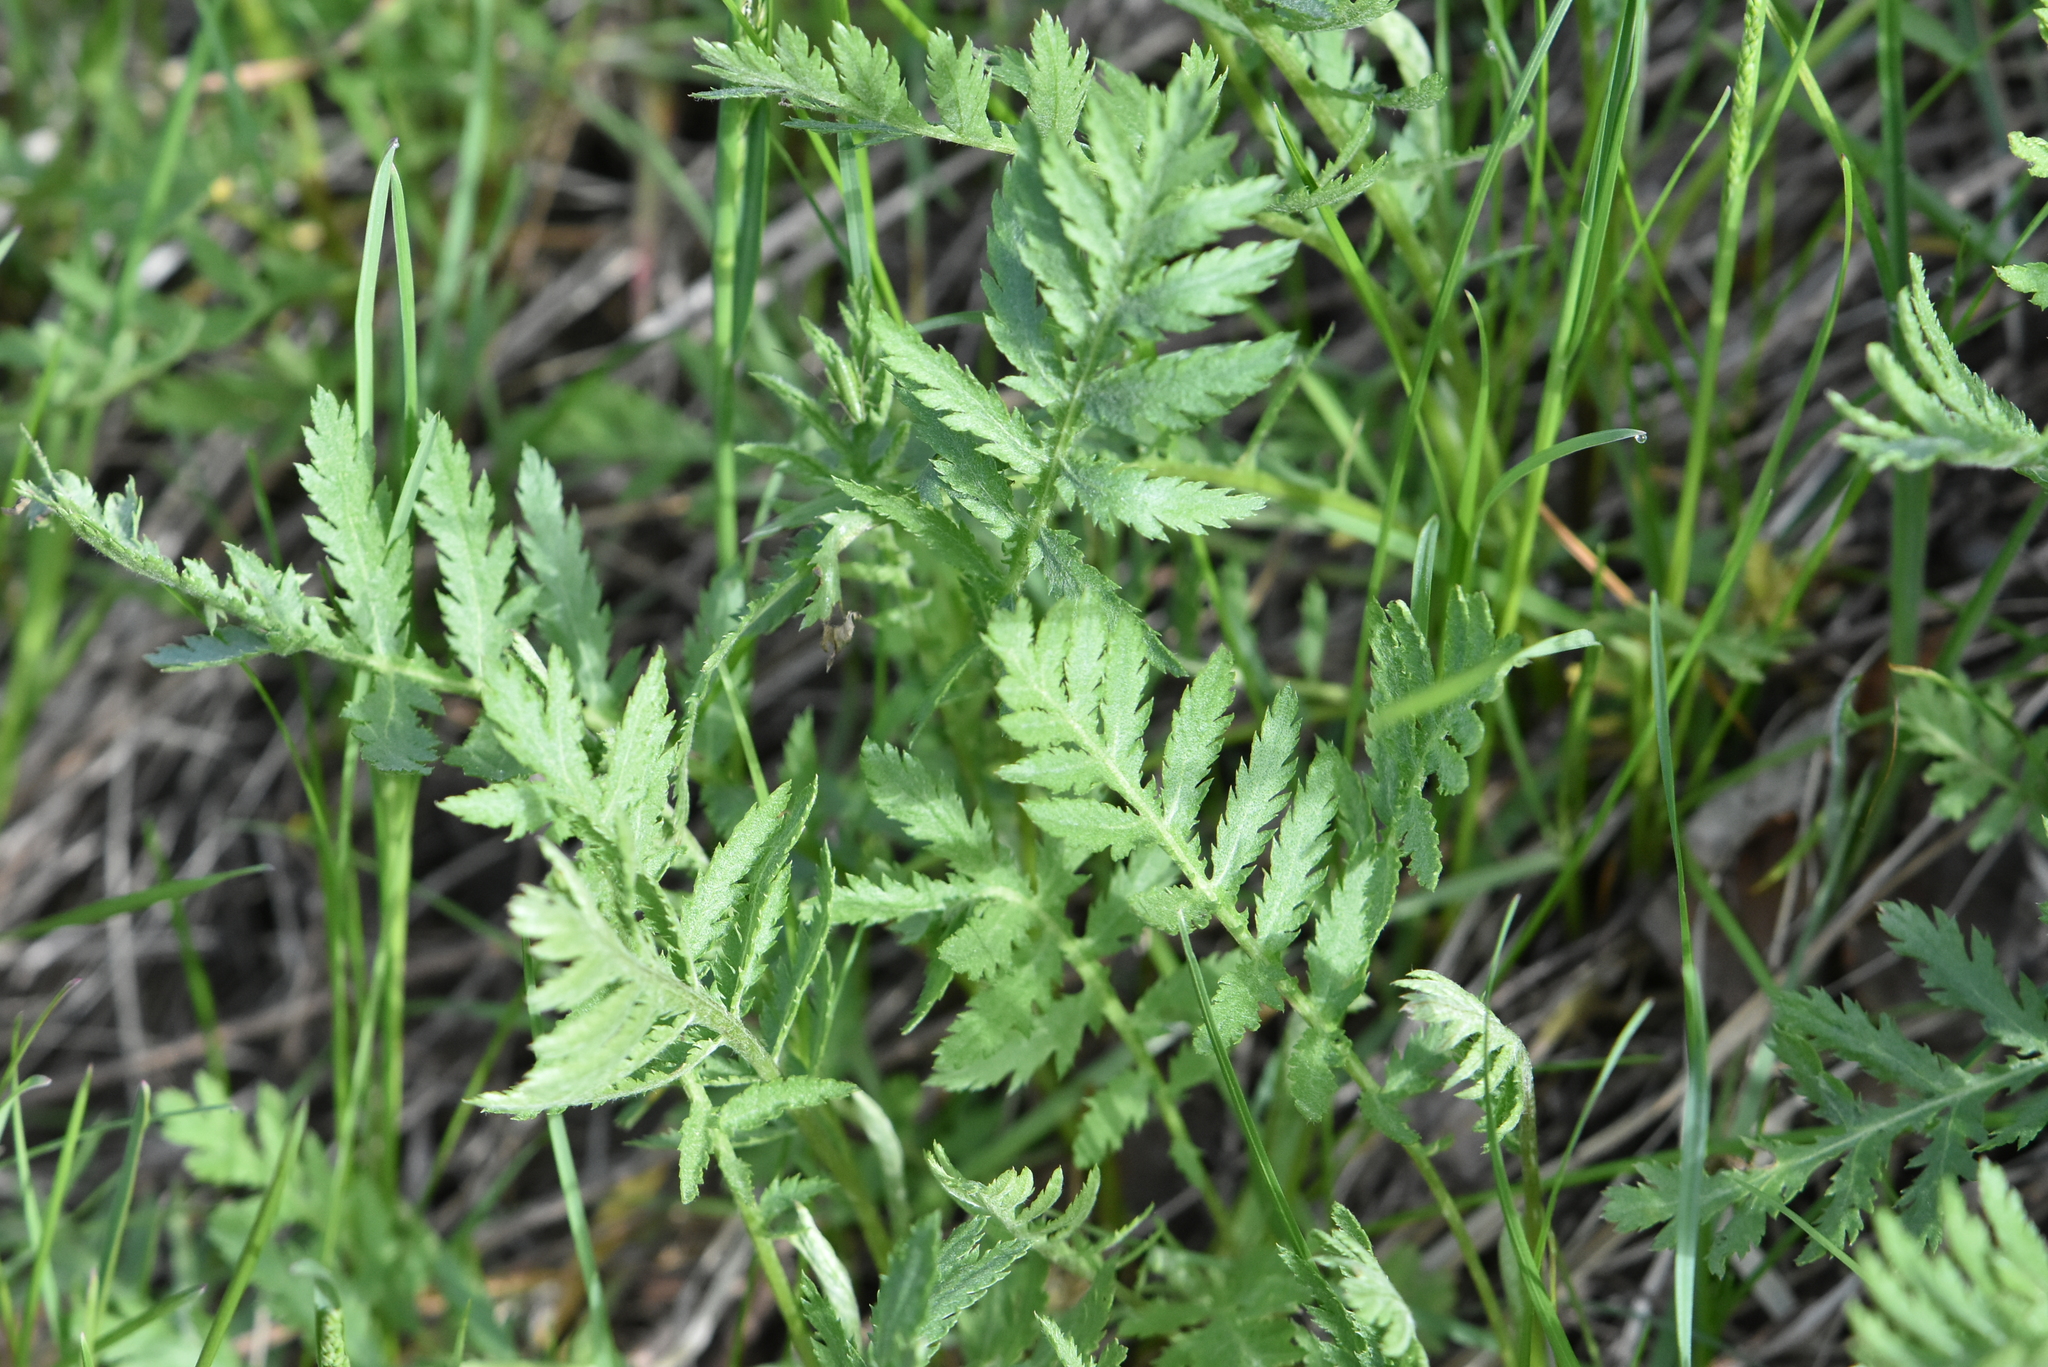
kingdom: Plantae
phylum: Tracheophyta
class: Magnoliopsida
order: Asterales
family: Asteraceae
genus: Tanacetum
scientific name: Tanacetum vulgare
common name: Common tansy
